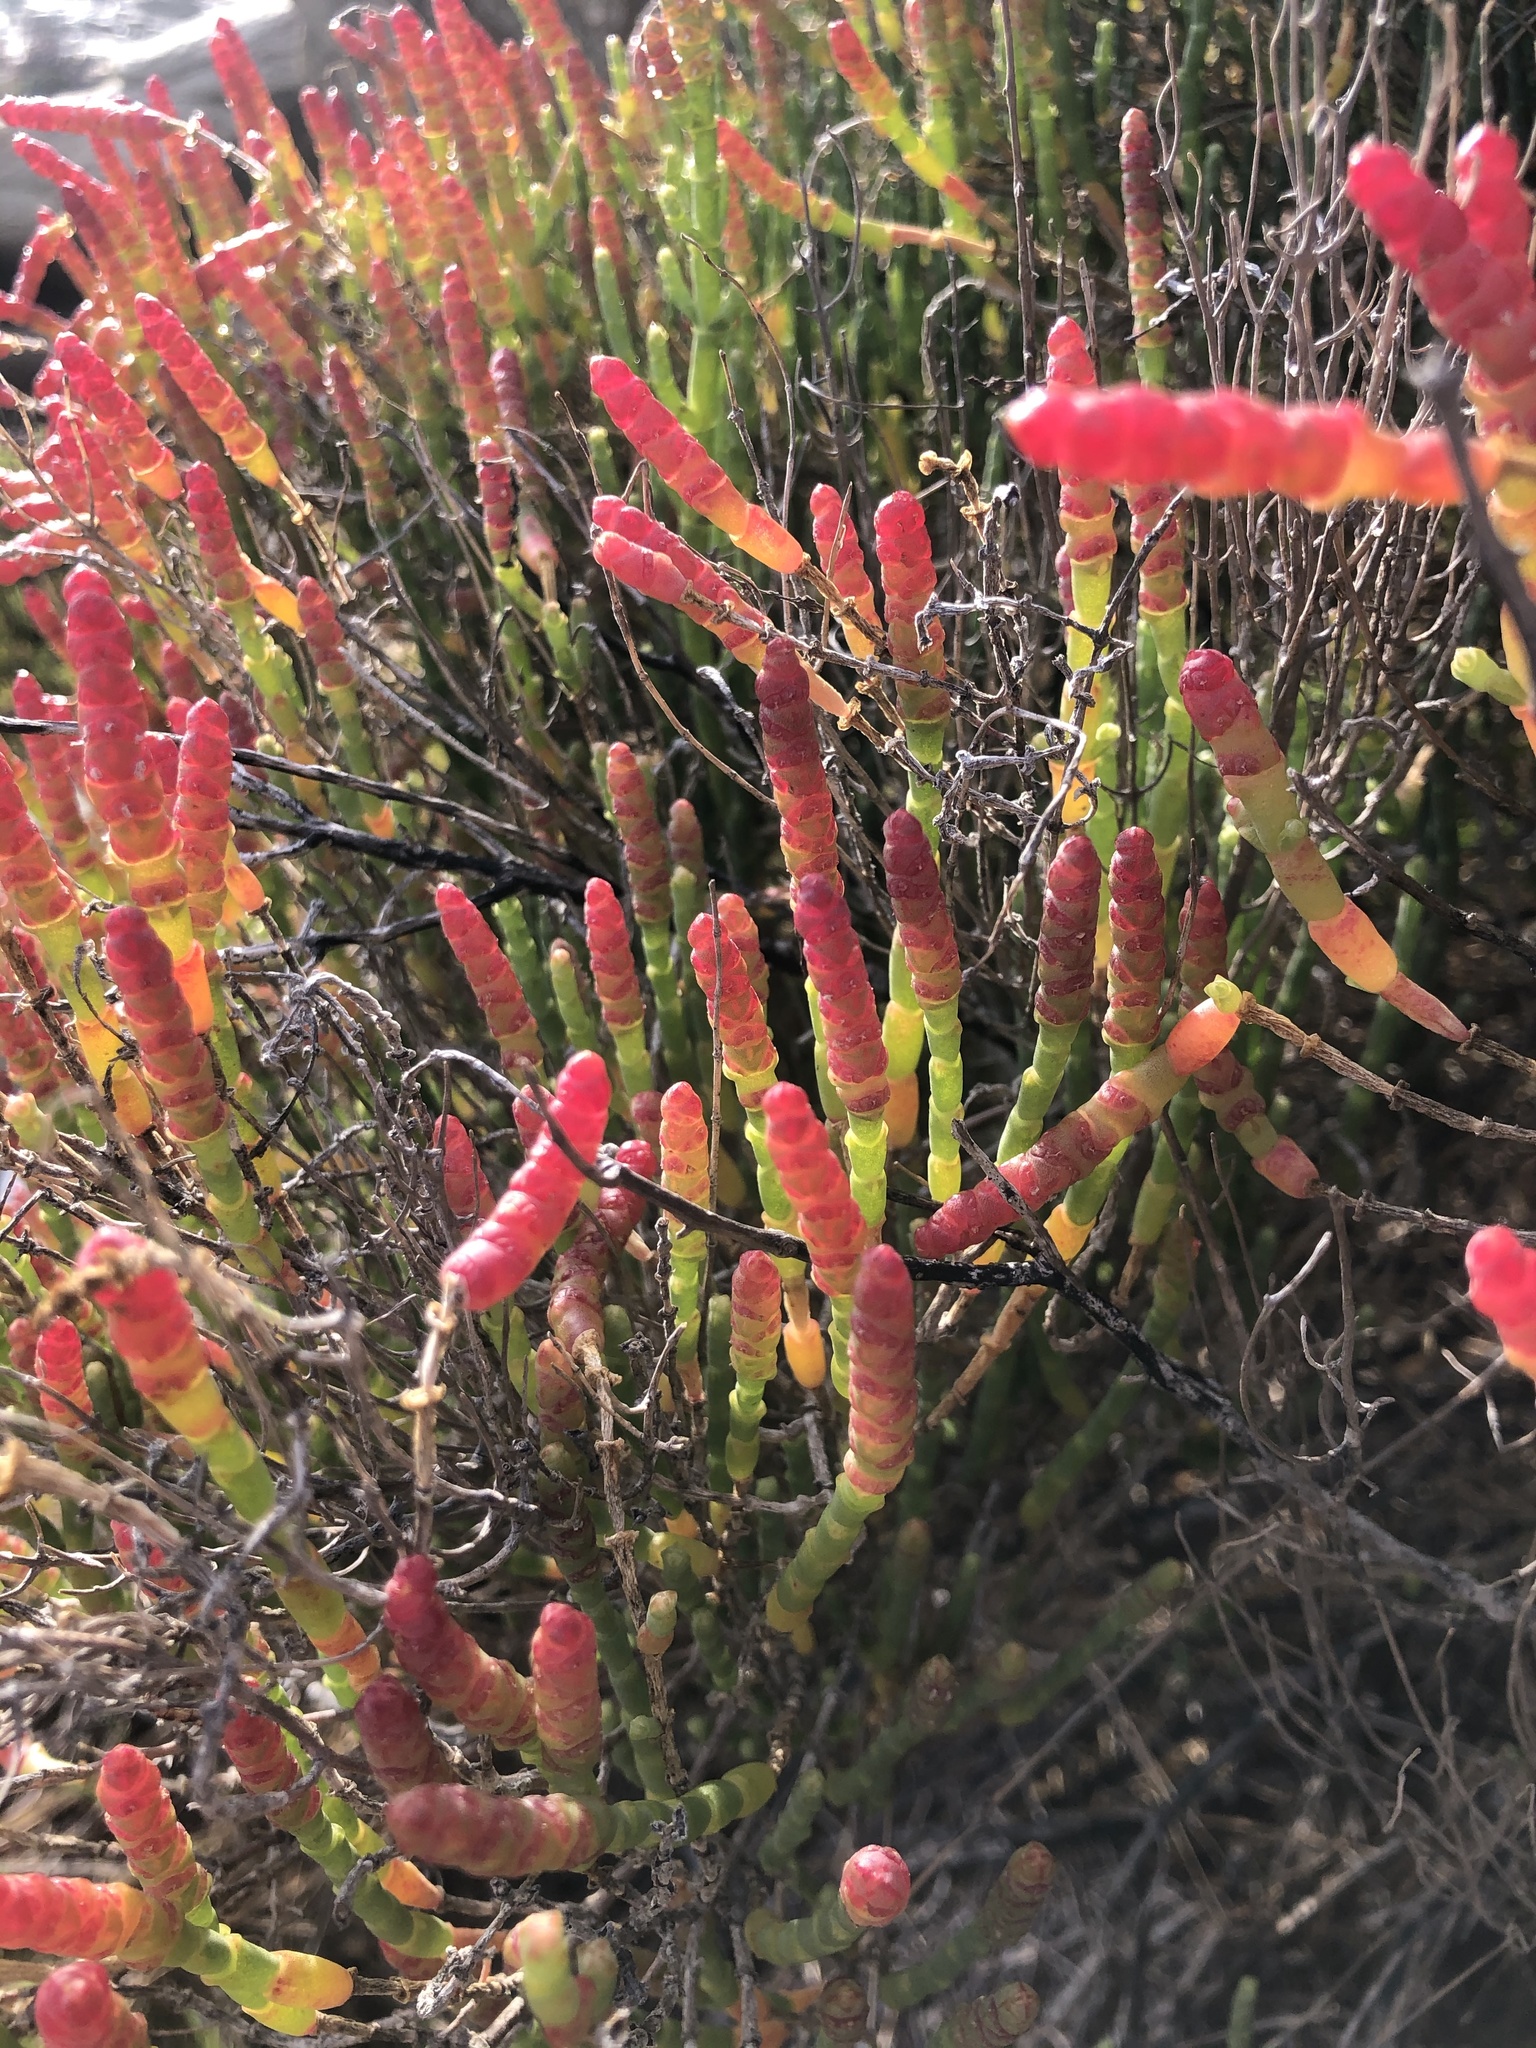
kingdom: Plantae
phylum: Tracheophyta
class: Magnoliopsida
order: Caryophyllales
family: Amaranthaceae
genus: Salicornia
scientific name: Salicornia littorea
